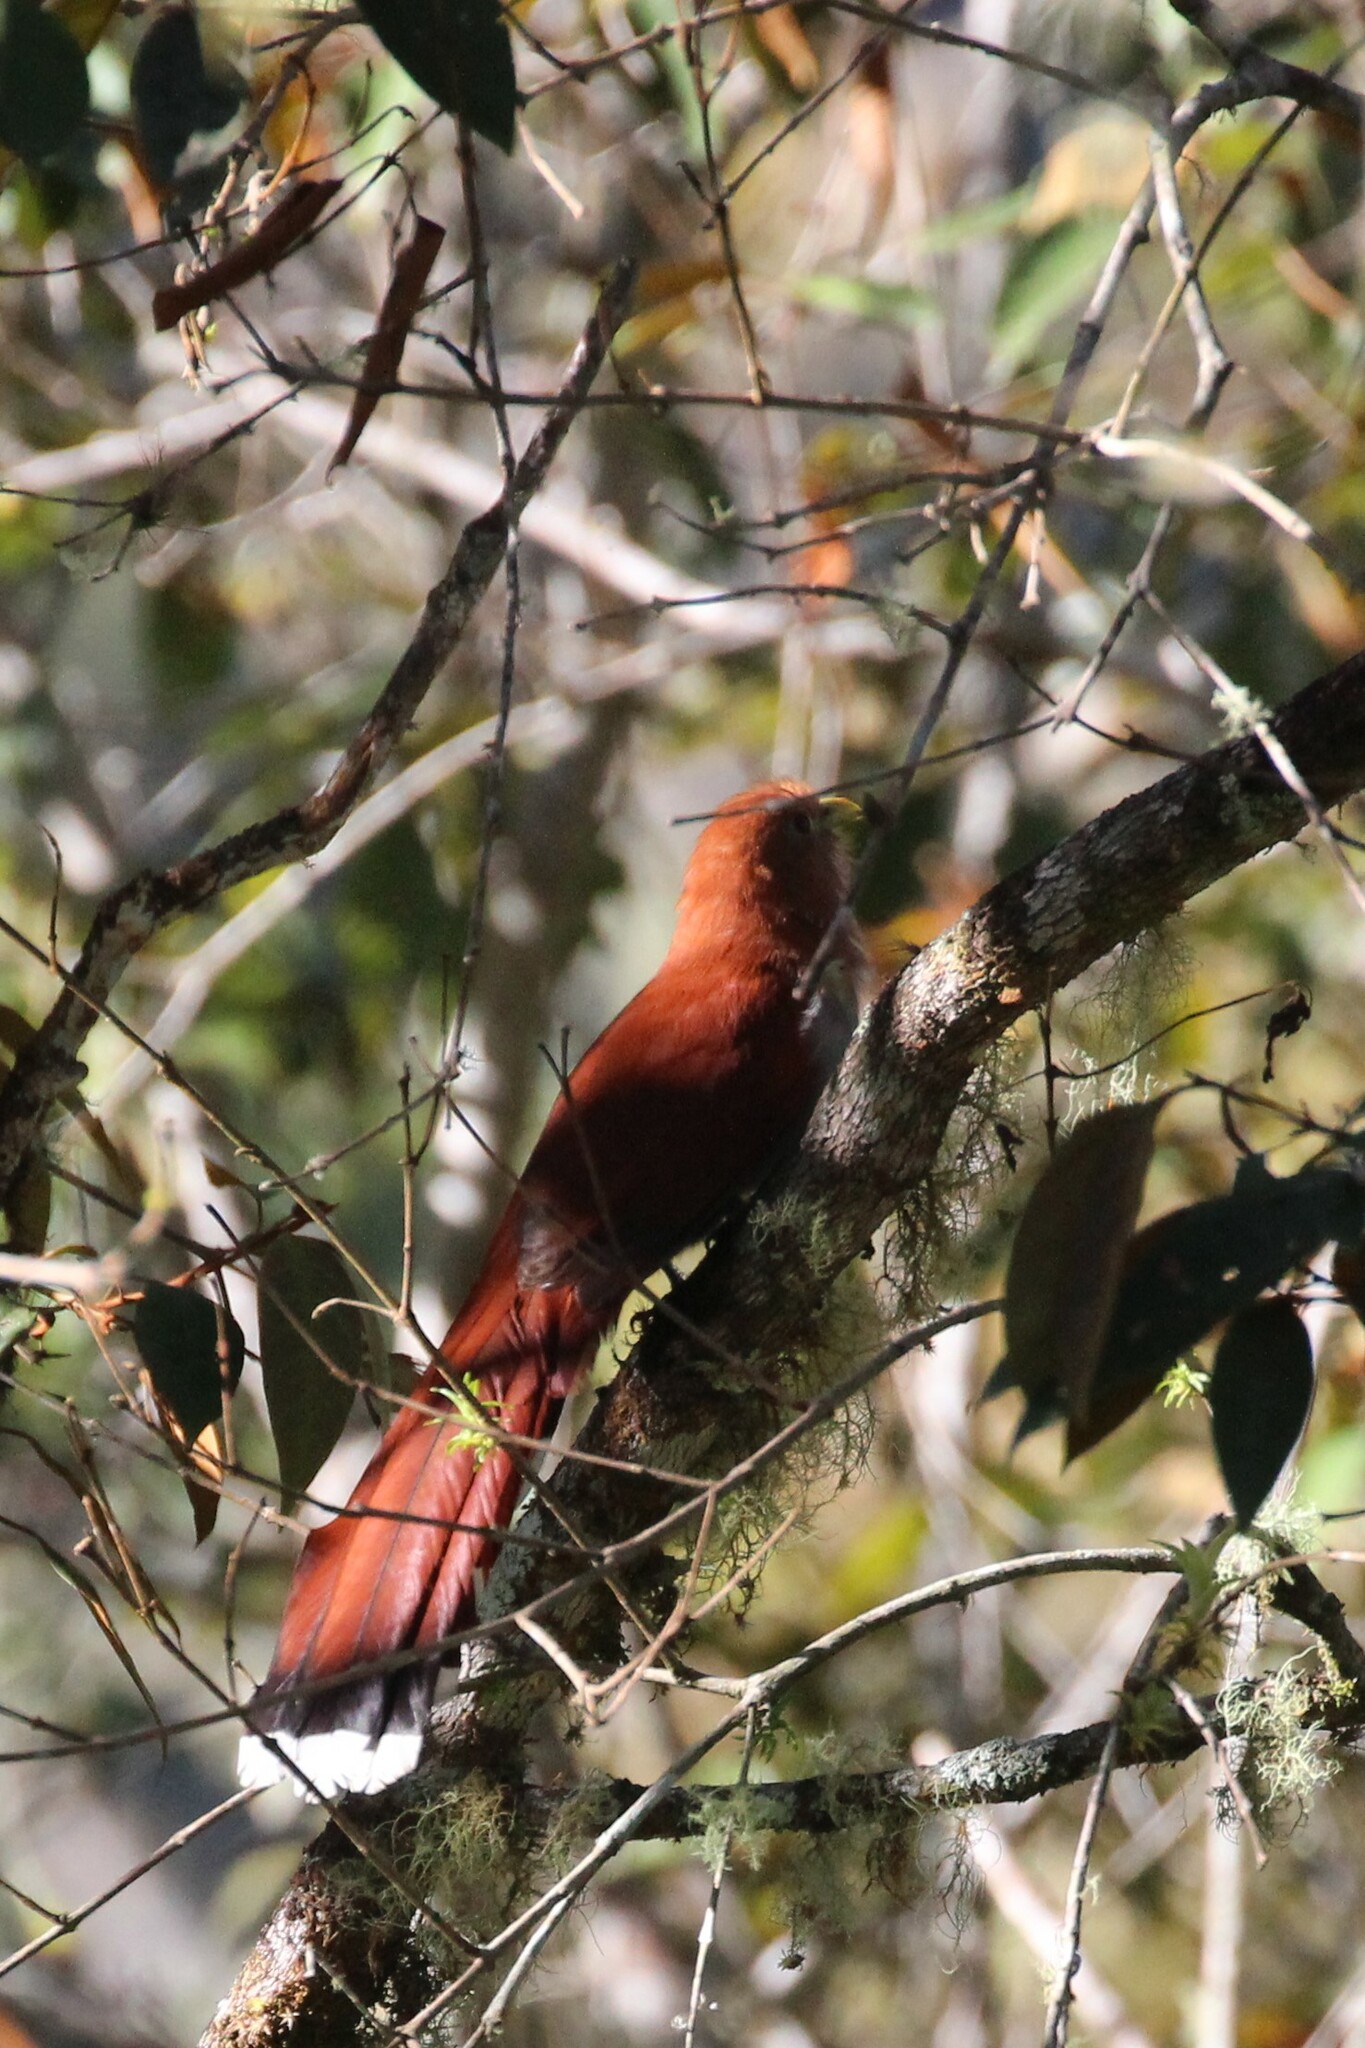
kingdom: Animalia
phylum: Chordata
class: Aves
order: Cuculiformes
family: Cuculidae
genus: Piaya
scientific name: Piaya cayana
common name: Squirrel cuckoo
